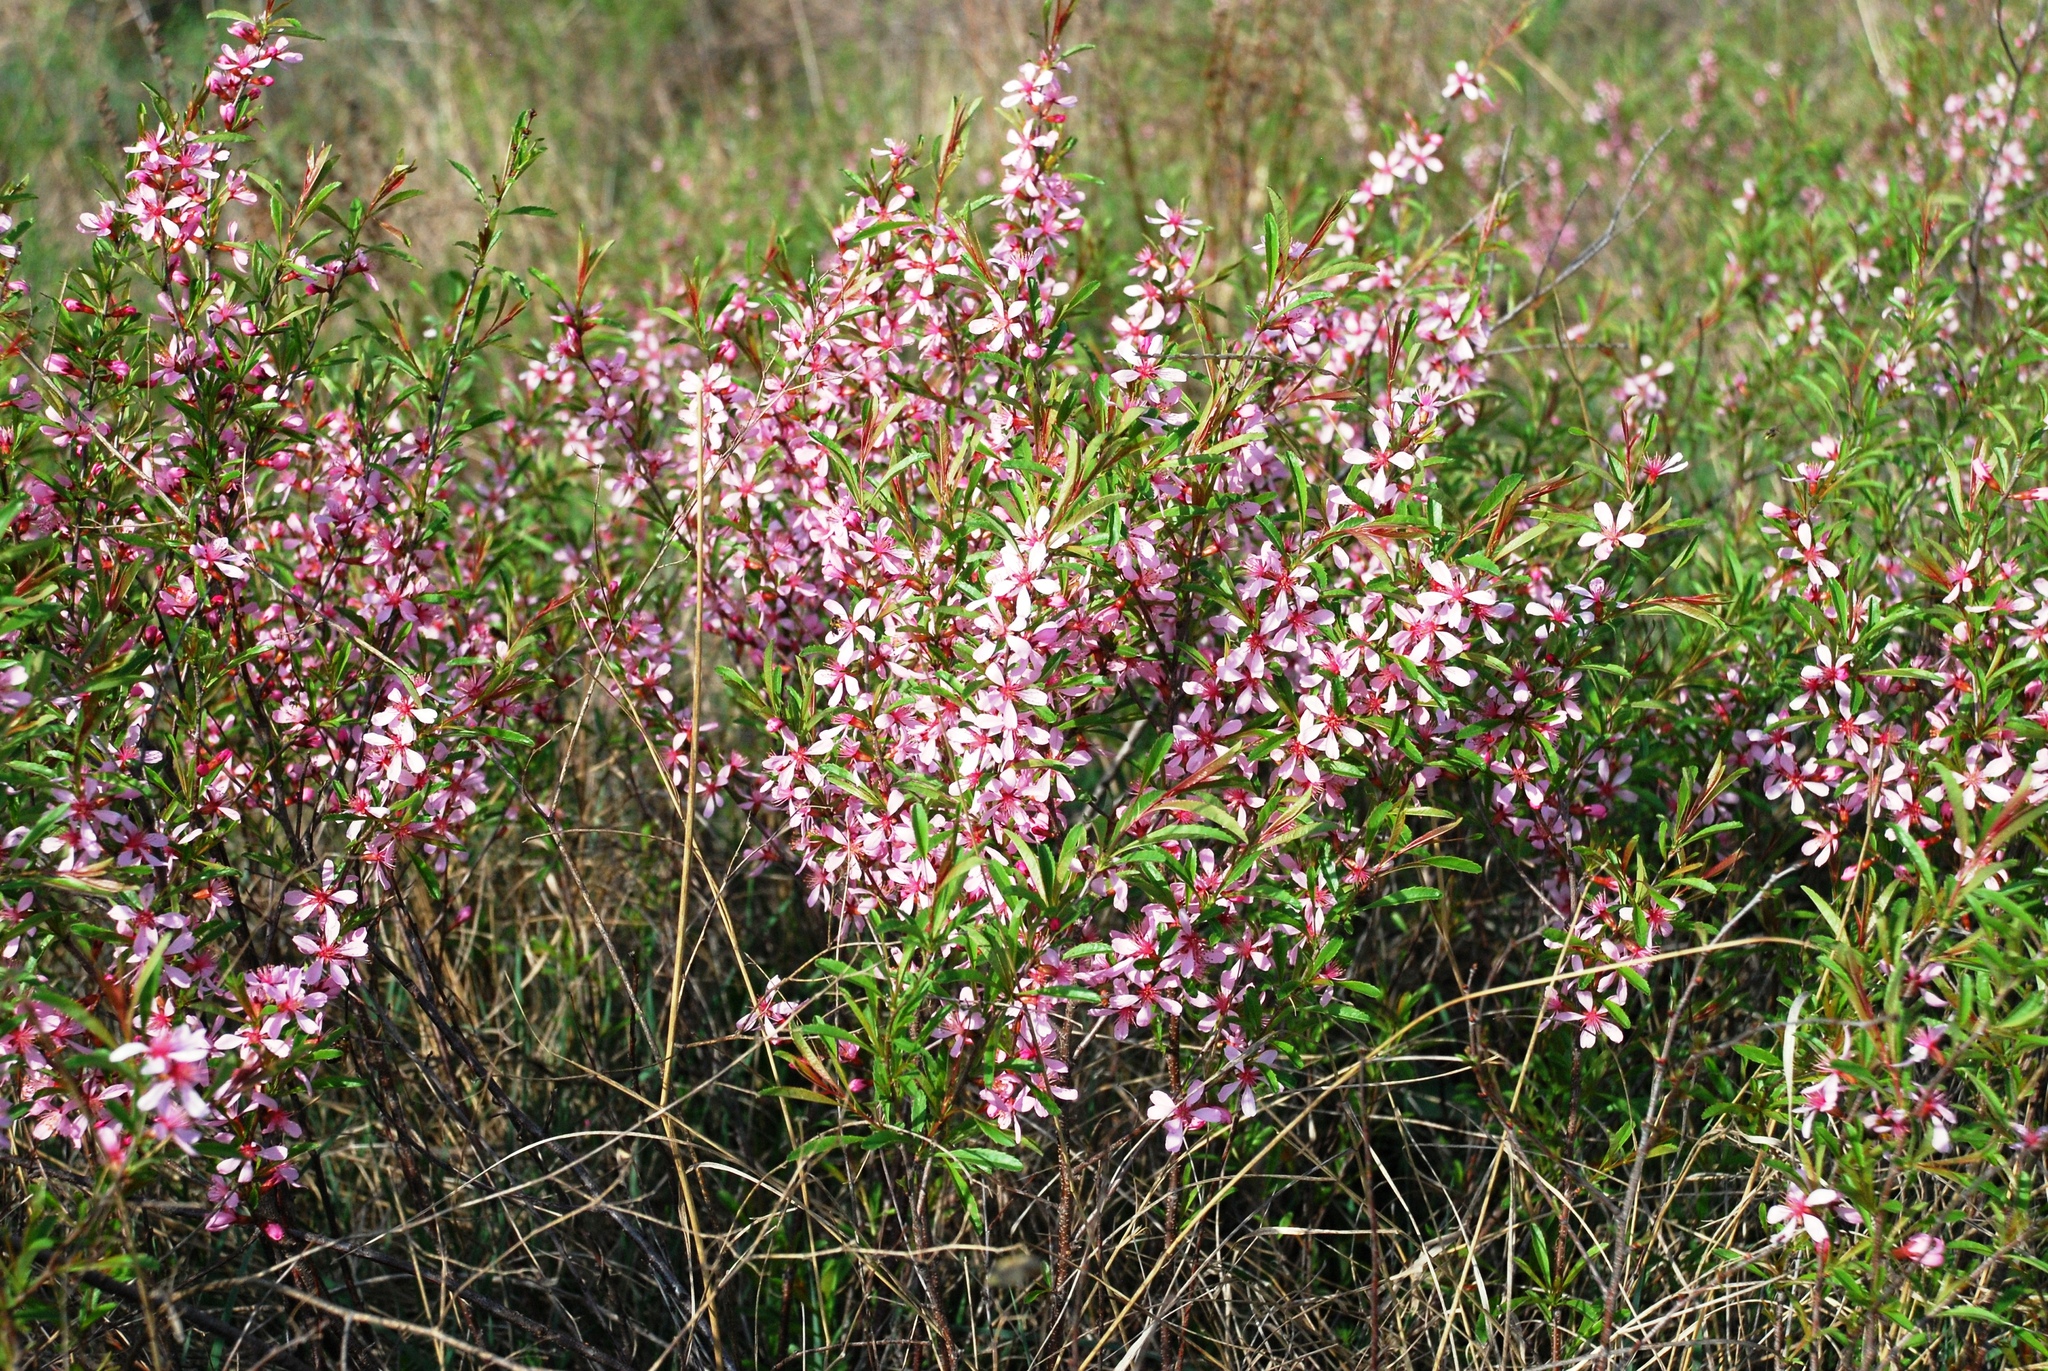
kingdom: Plantae
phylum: Tracheophyta
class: Magnoliopsida
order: Rosales
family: Rosaceae
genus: Prunus
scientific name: Prunus tenella
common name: Dwarf russian almond
